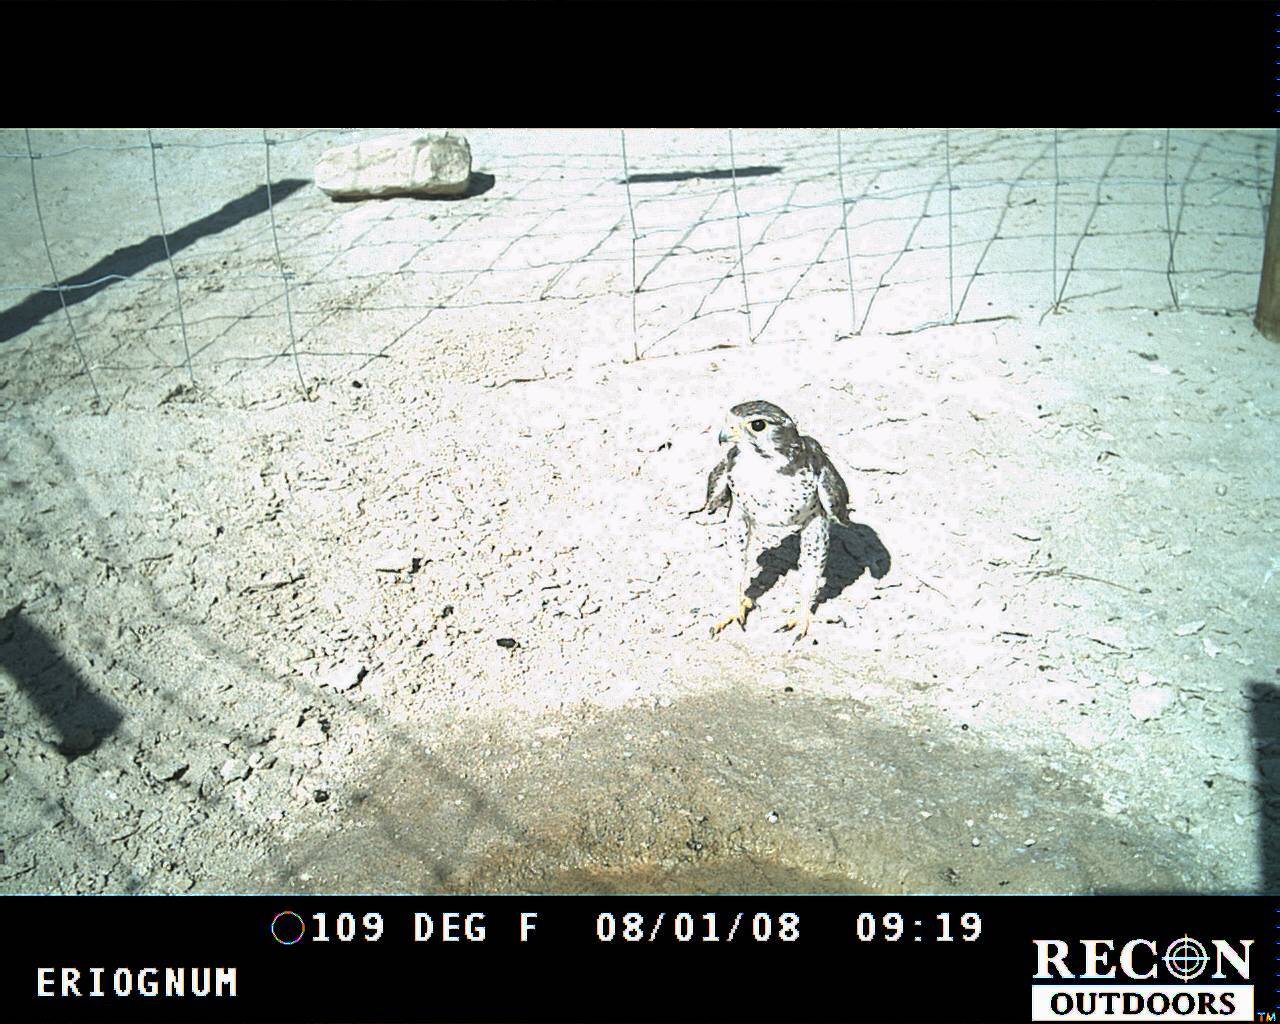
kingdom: Animalia
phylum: Chordata
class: Aves
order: Falconiformes
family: Falconidae
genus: Falco
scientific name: Falco mexicanus
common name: Prairie falcon
